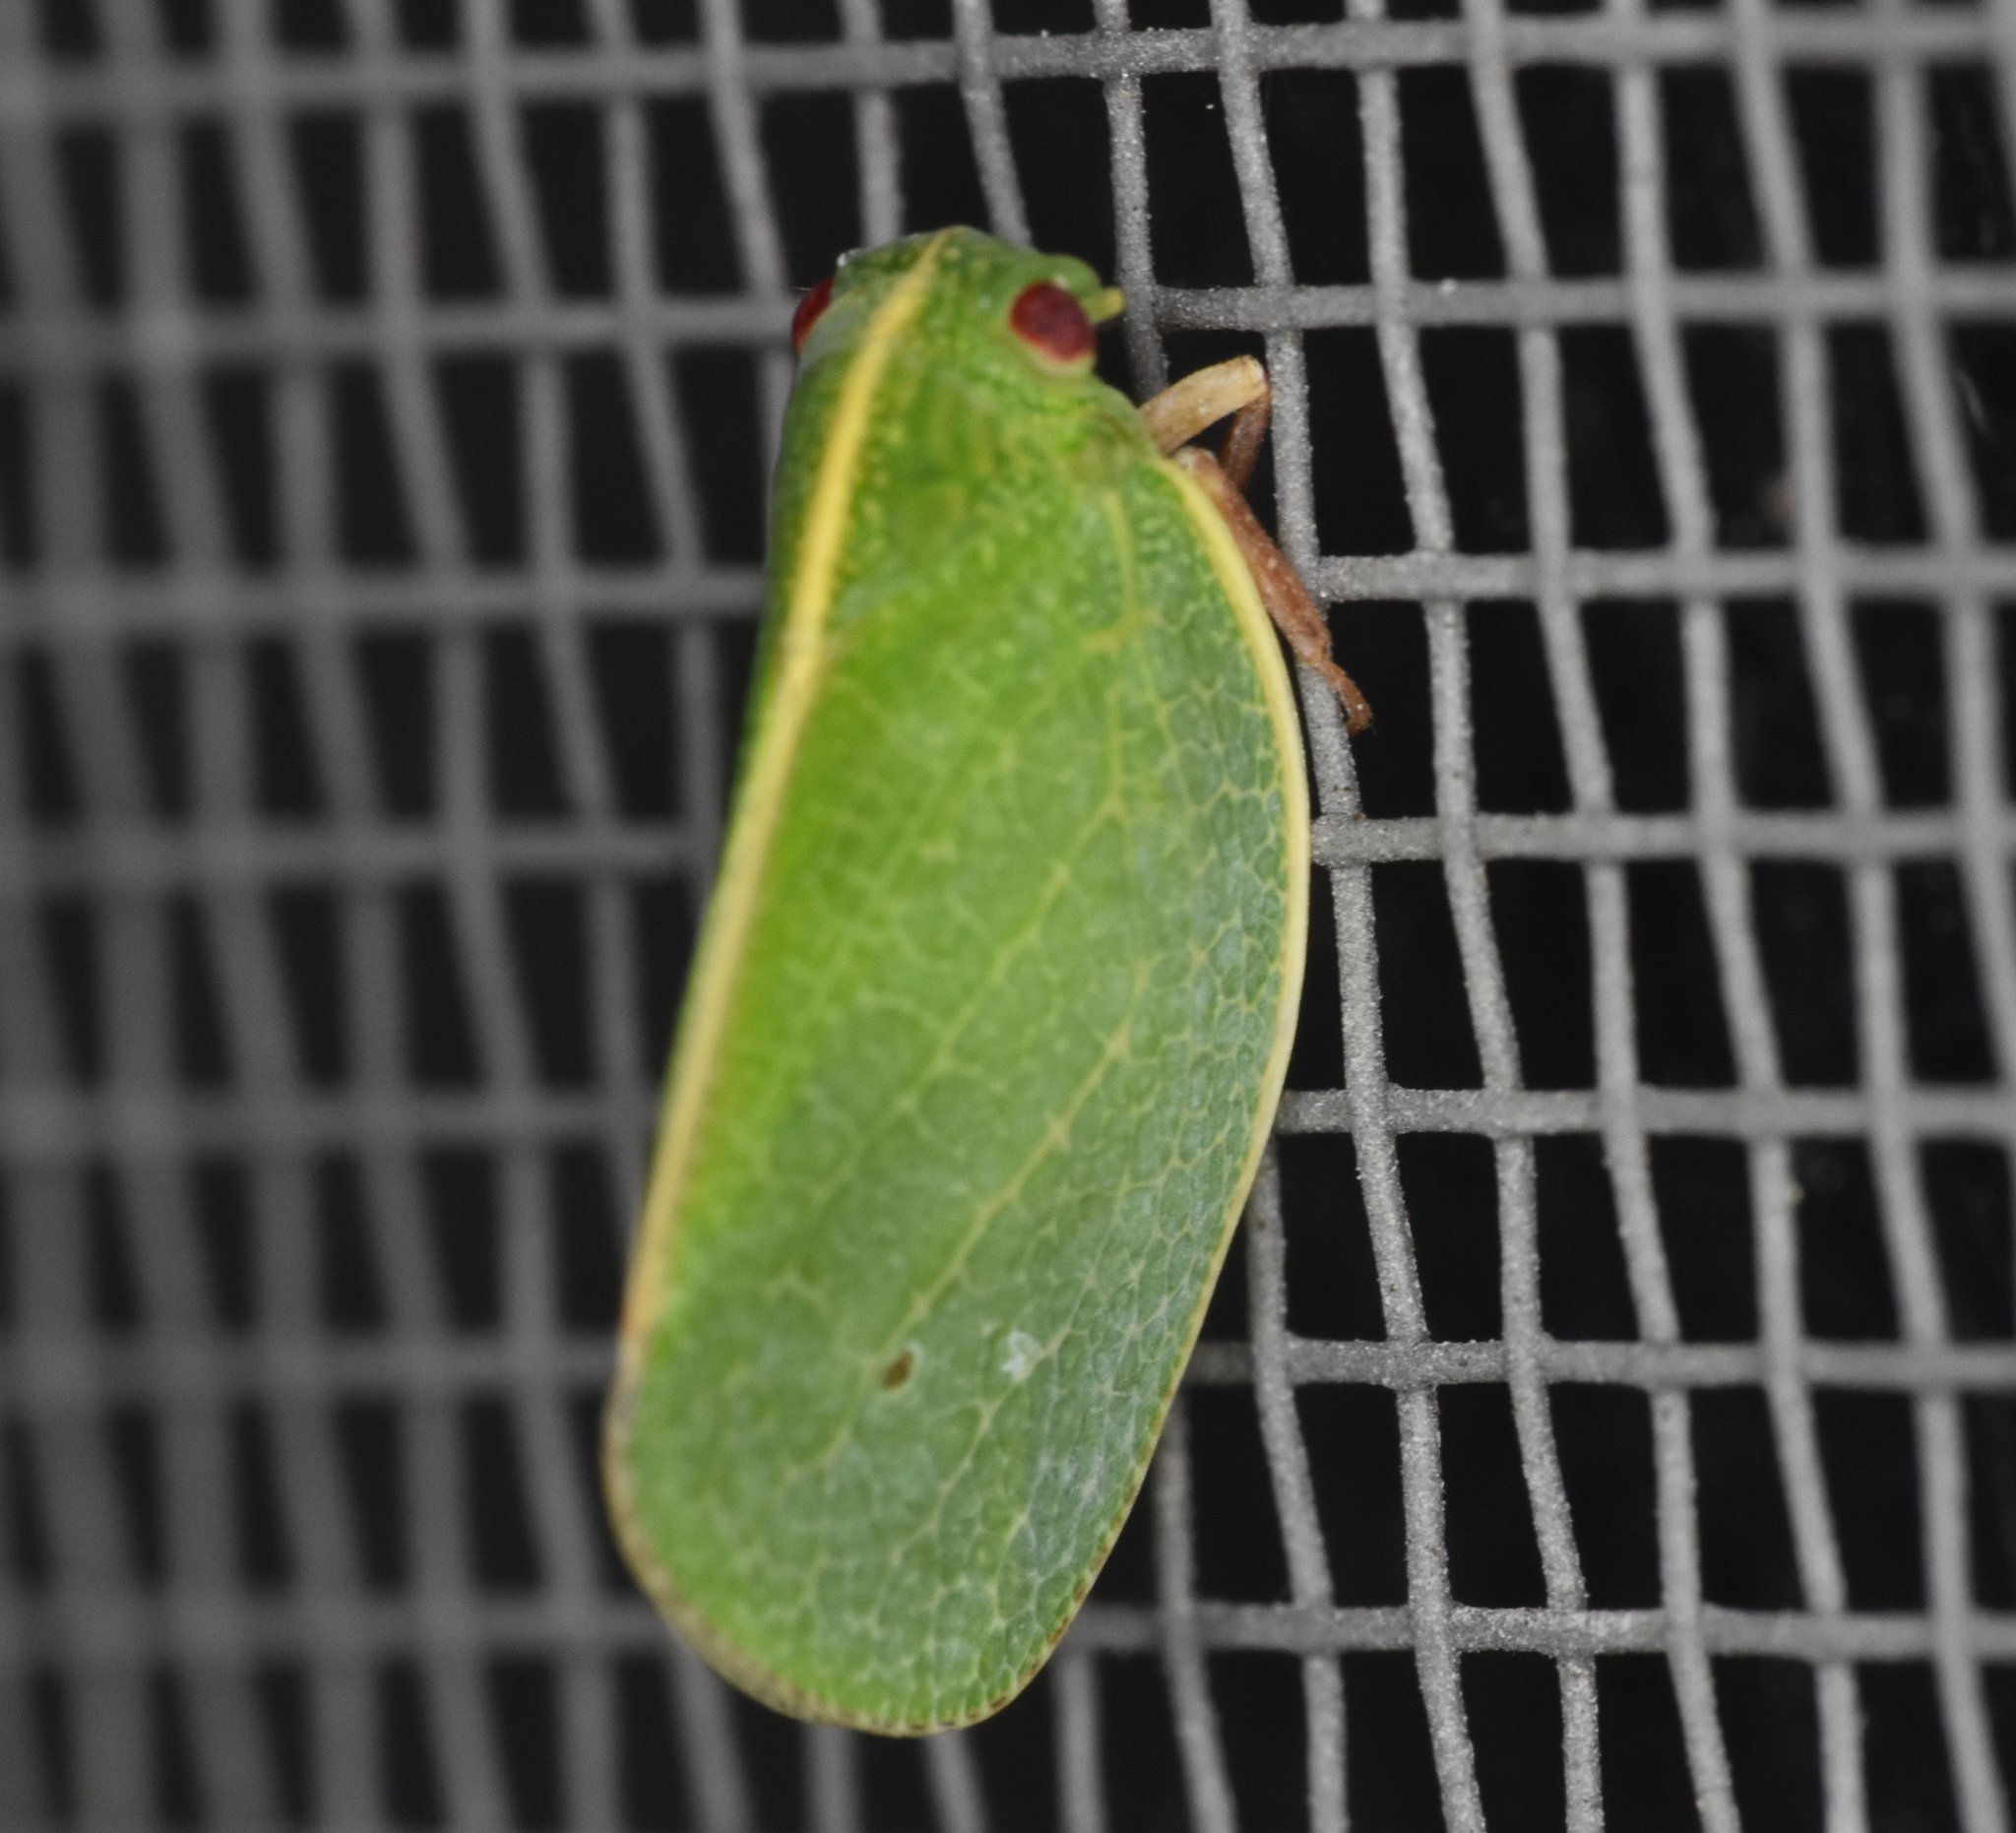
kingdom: Animalia
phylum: Arthropoda
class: Insecta
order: Hemiptera
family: Acanaloniidae
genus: Acanalonia
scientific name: Acanalonia servillei
